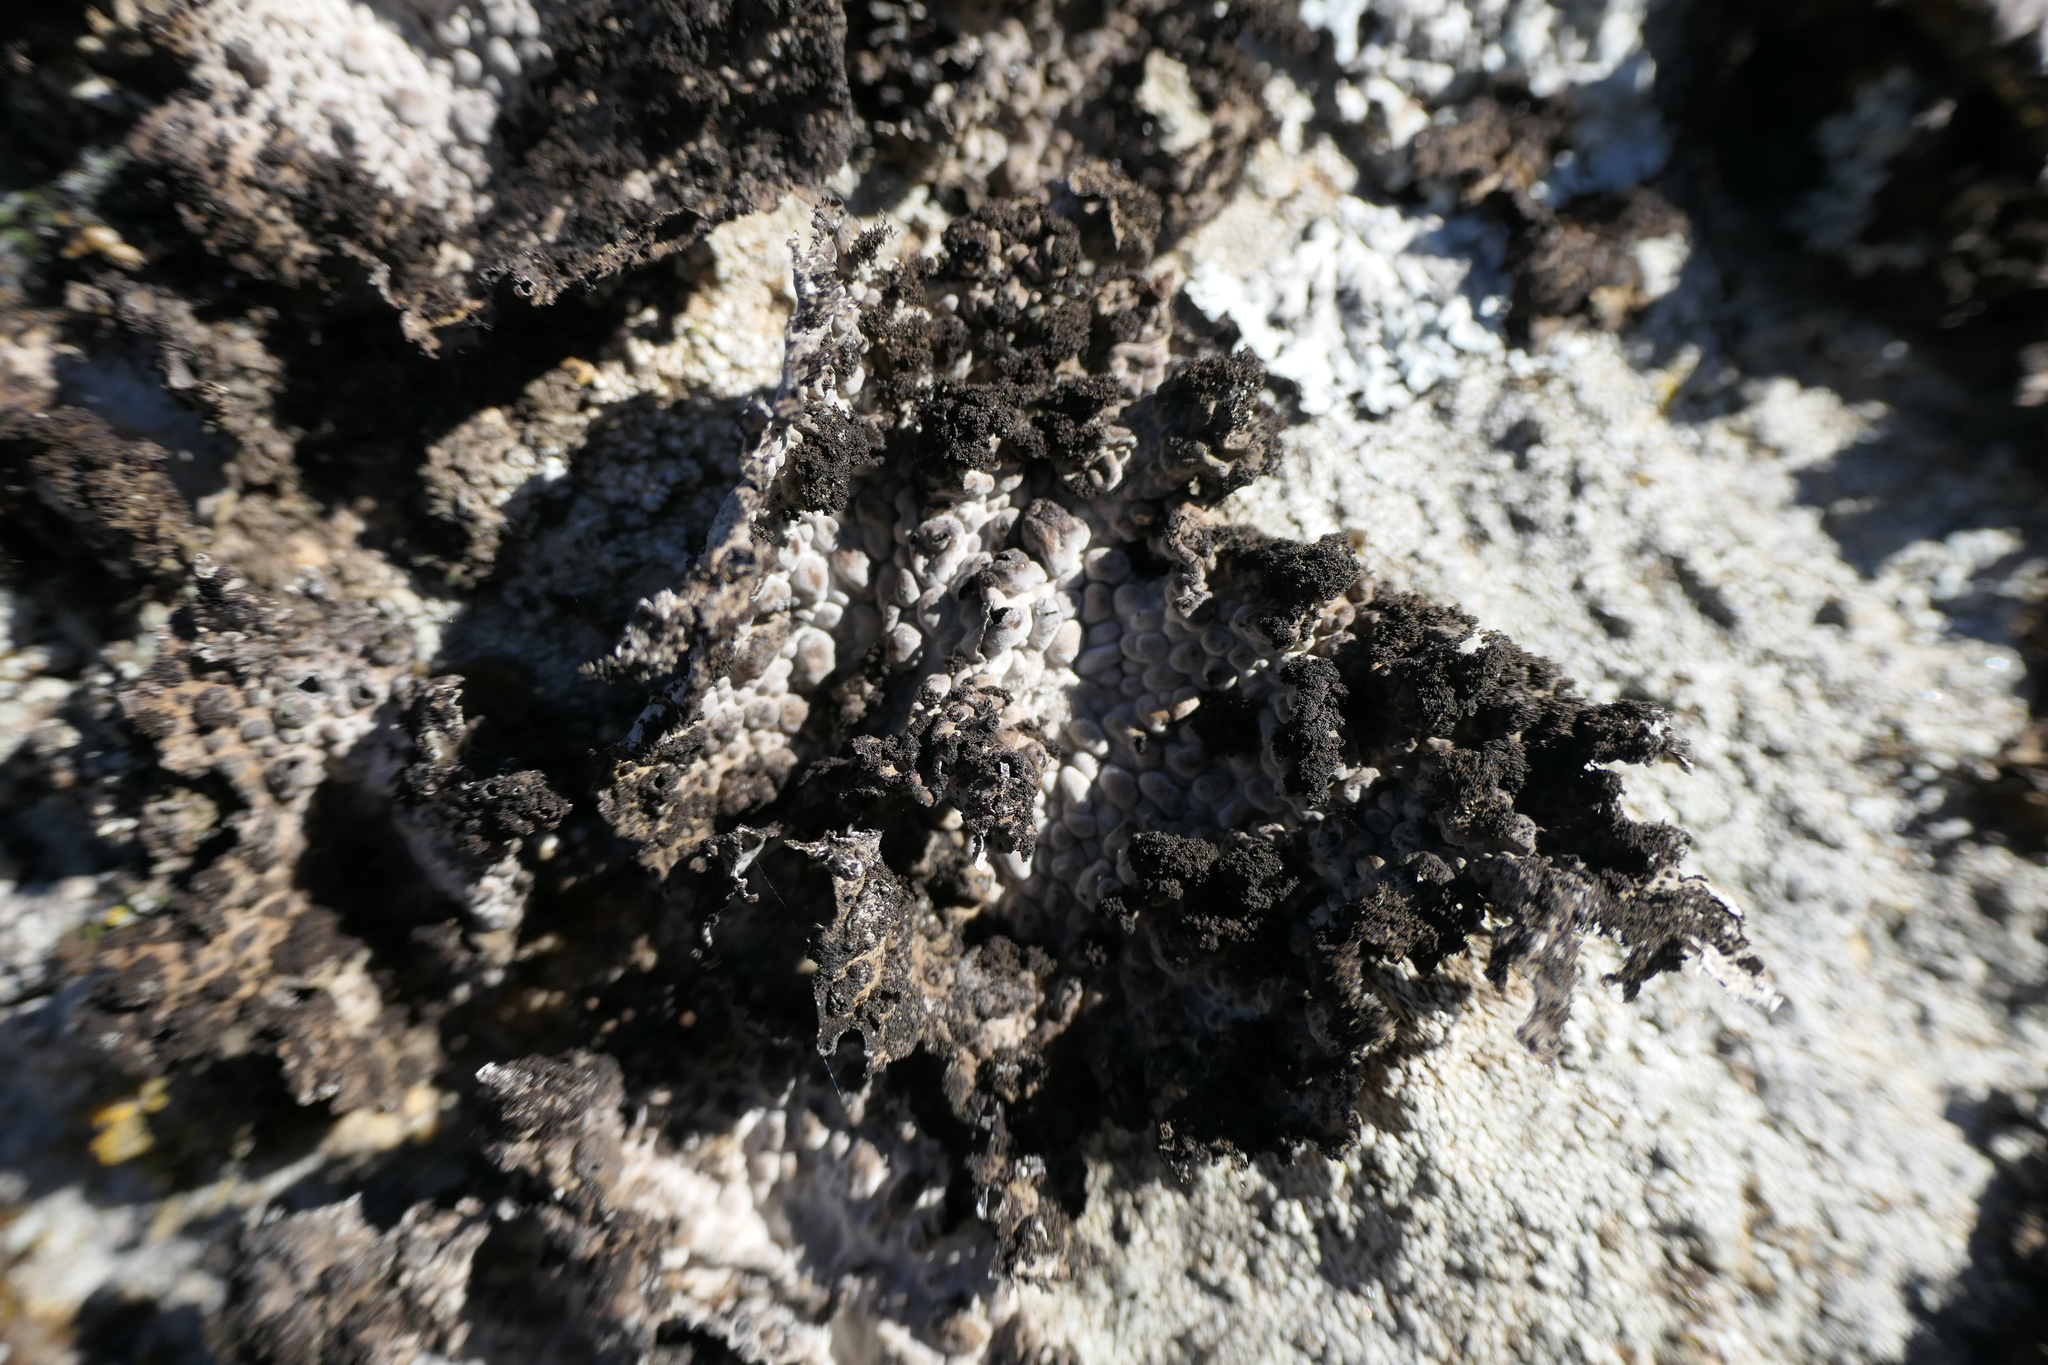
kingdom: Fungi
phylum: Ascomycota
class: Lecanoromycetes
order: Umbilicariales
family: Umbilicariaceae
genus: Lasallia
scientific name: Lasallia pustulata
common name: Blistered toadskin lichen
